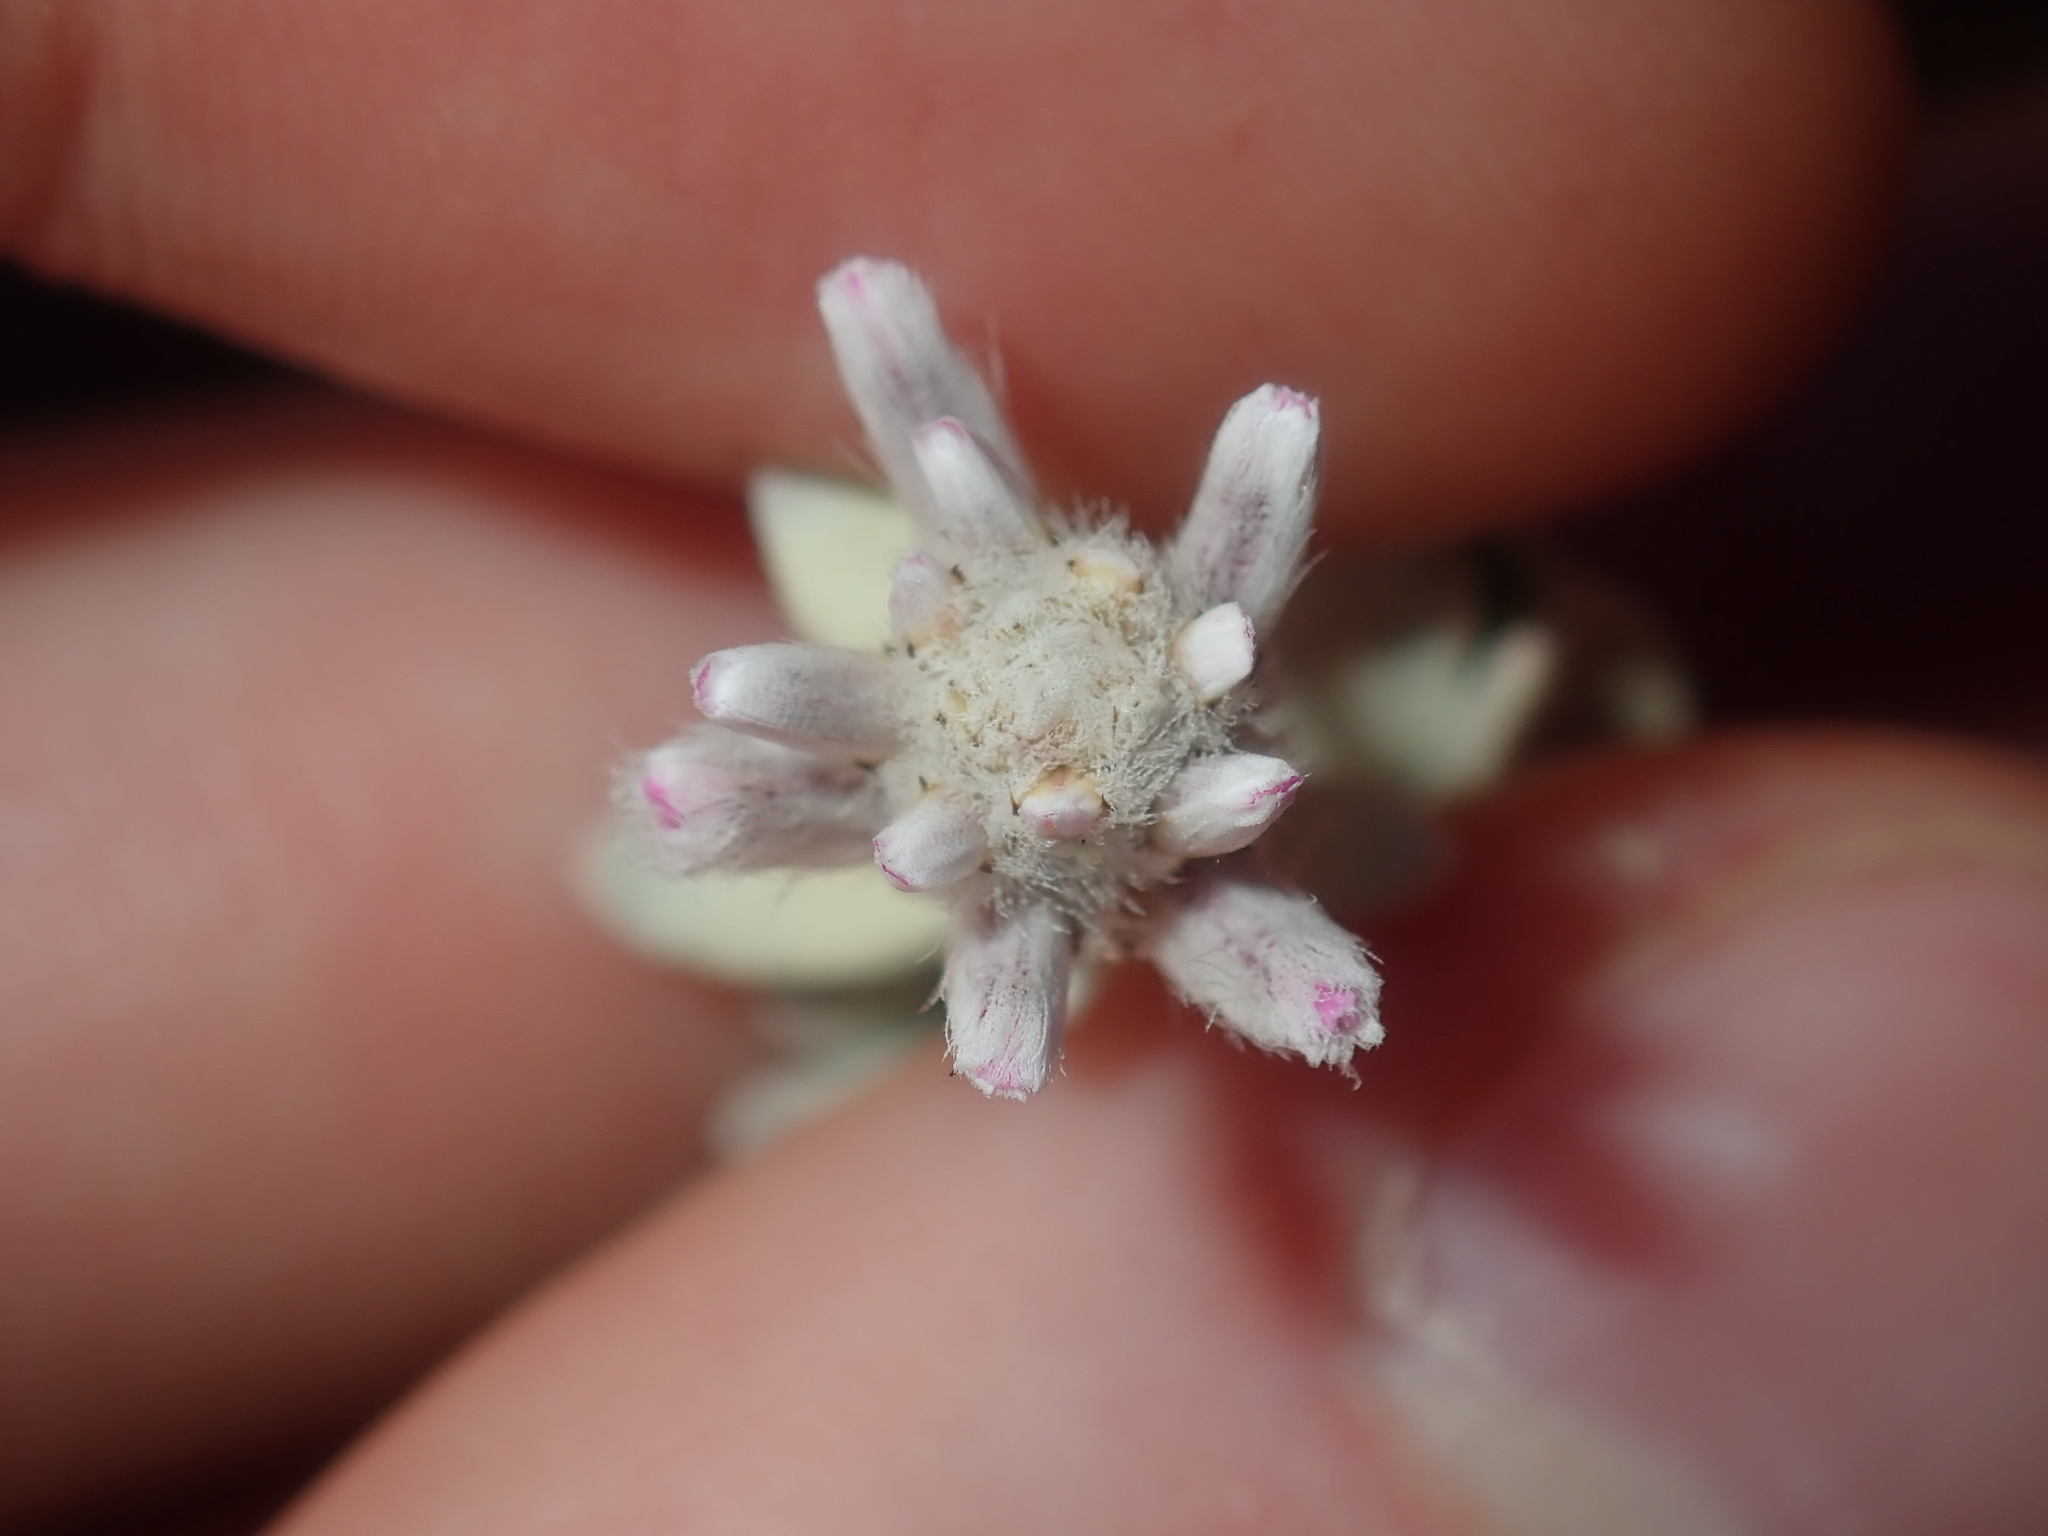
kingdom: Plantae
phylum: Tracheophyta
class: Magnoliopsida
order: Caryophyllales
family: Amaranthaceae
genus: Ptilotus
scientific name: Ptilotus obovatus
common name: Cottonbush
